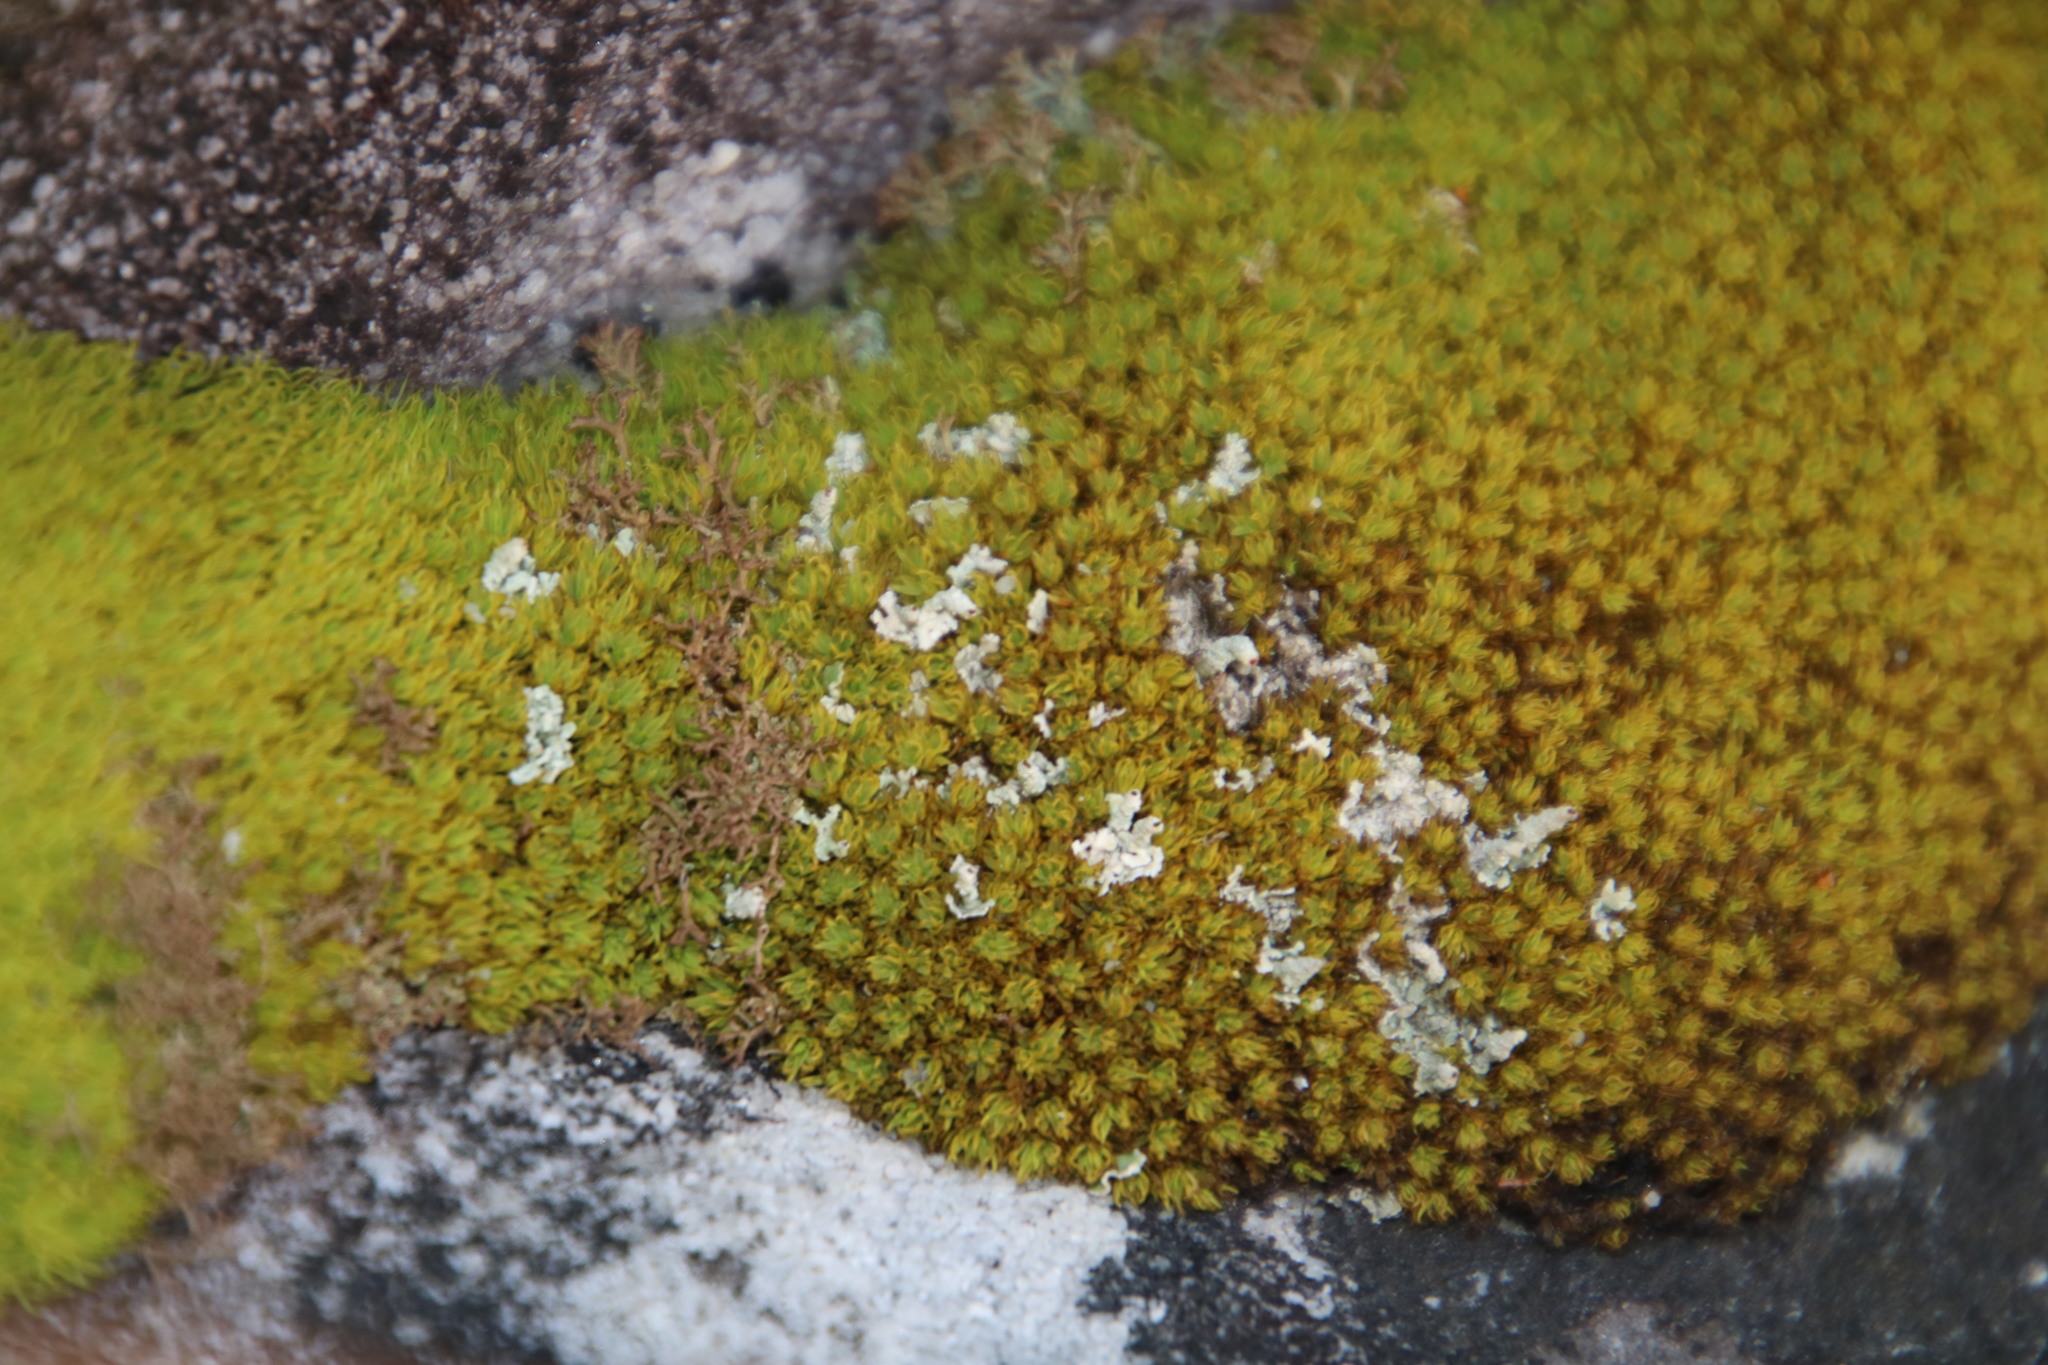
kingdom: Plantae
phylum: Bryophyta
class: Bryopsida
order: Dicranales
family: Hypodontiaceae
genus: Hypodontium
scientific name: Hypodontium pomiforme
